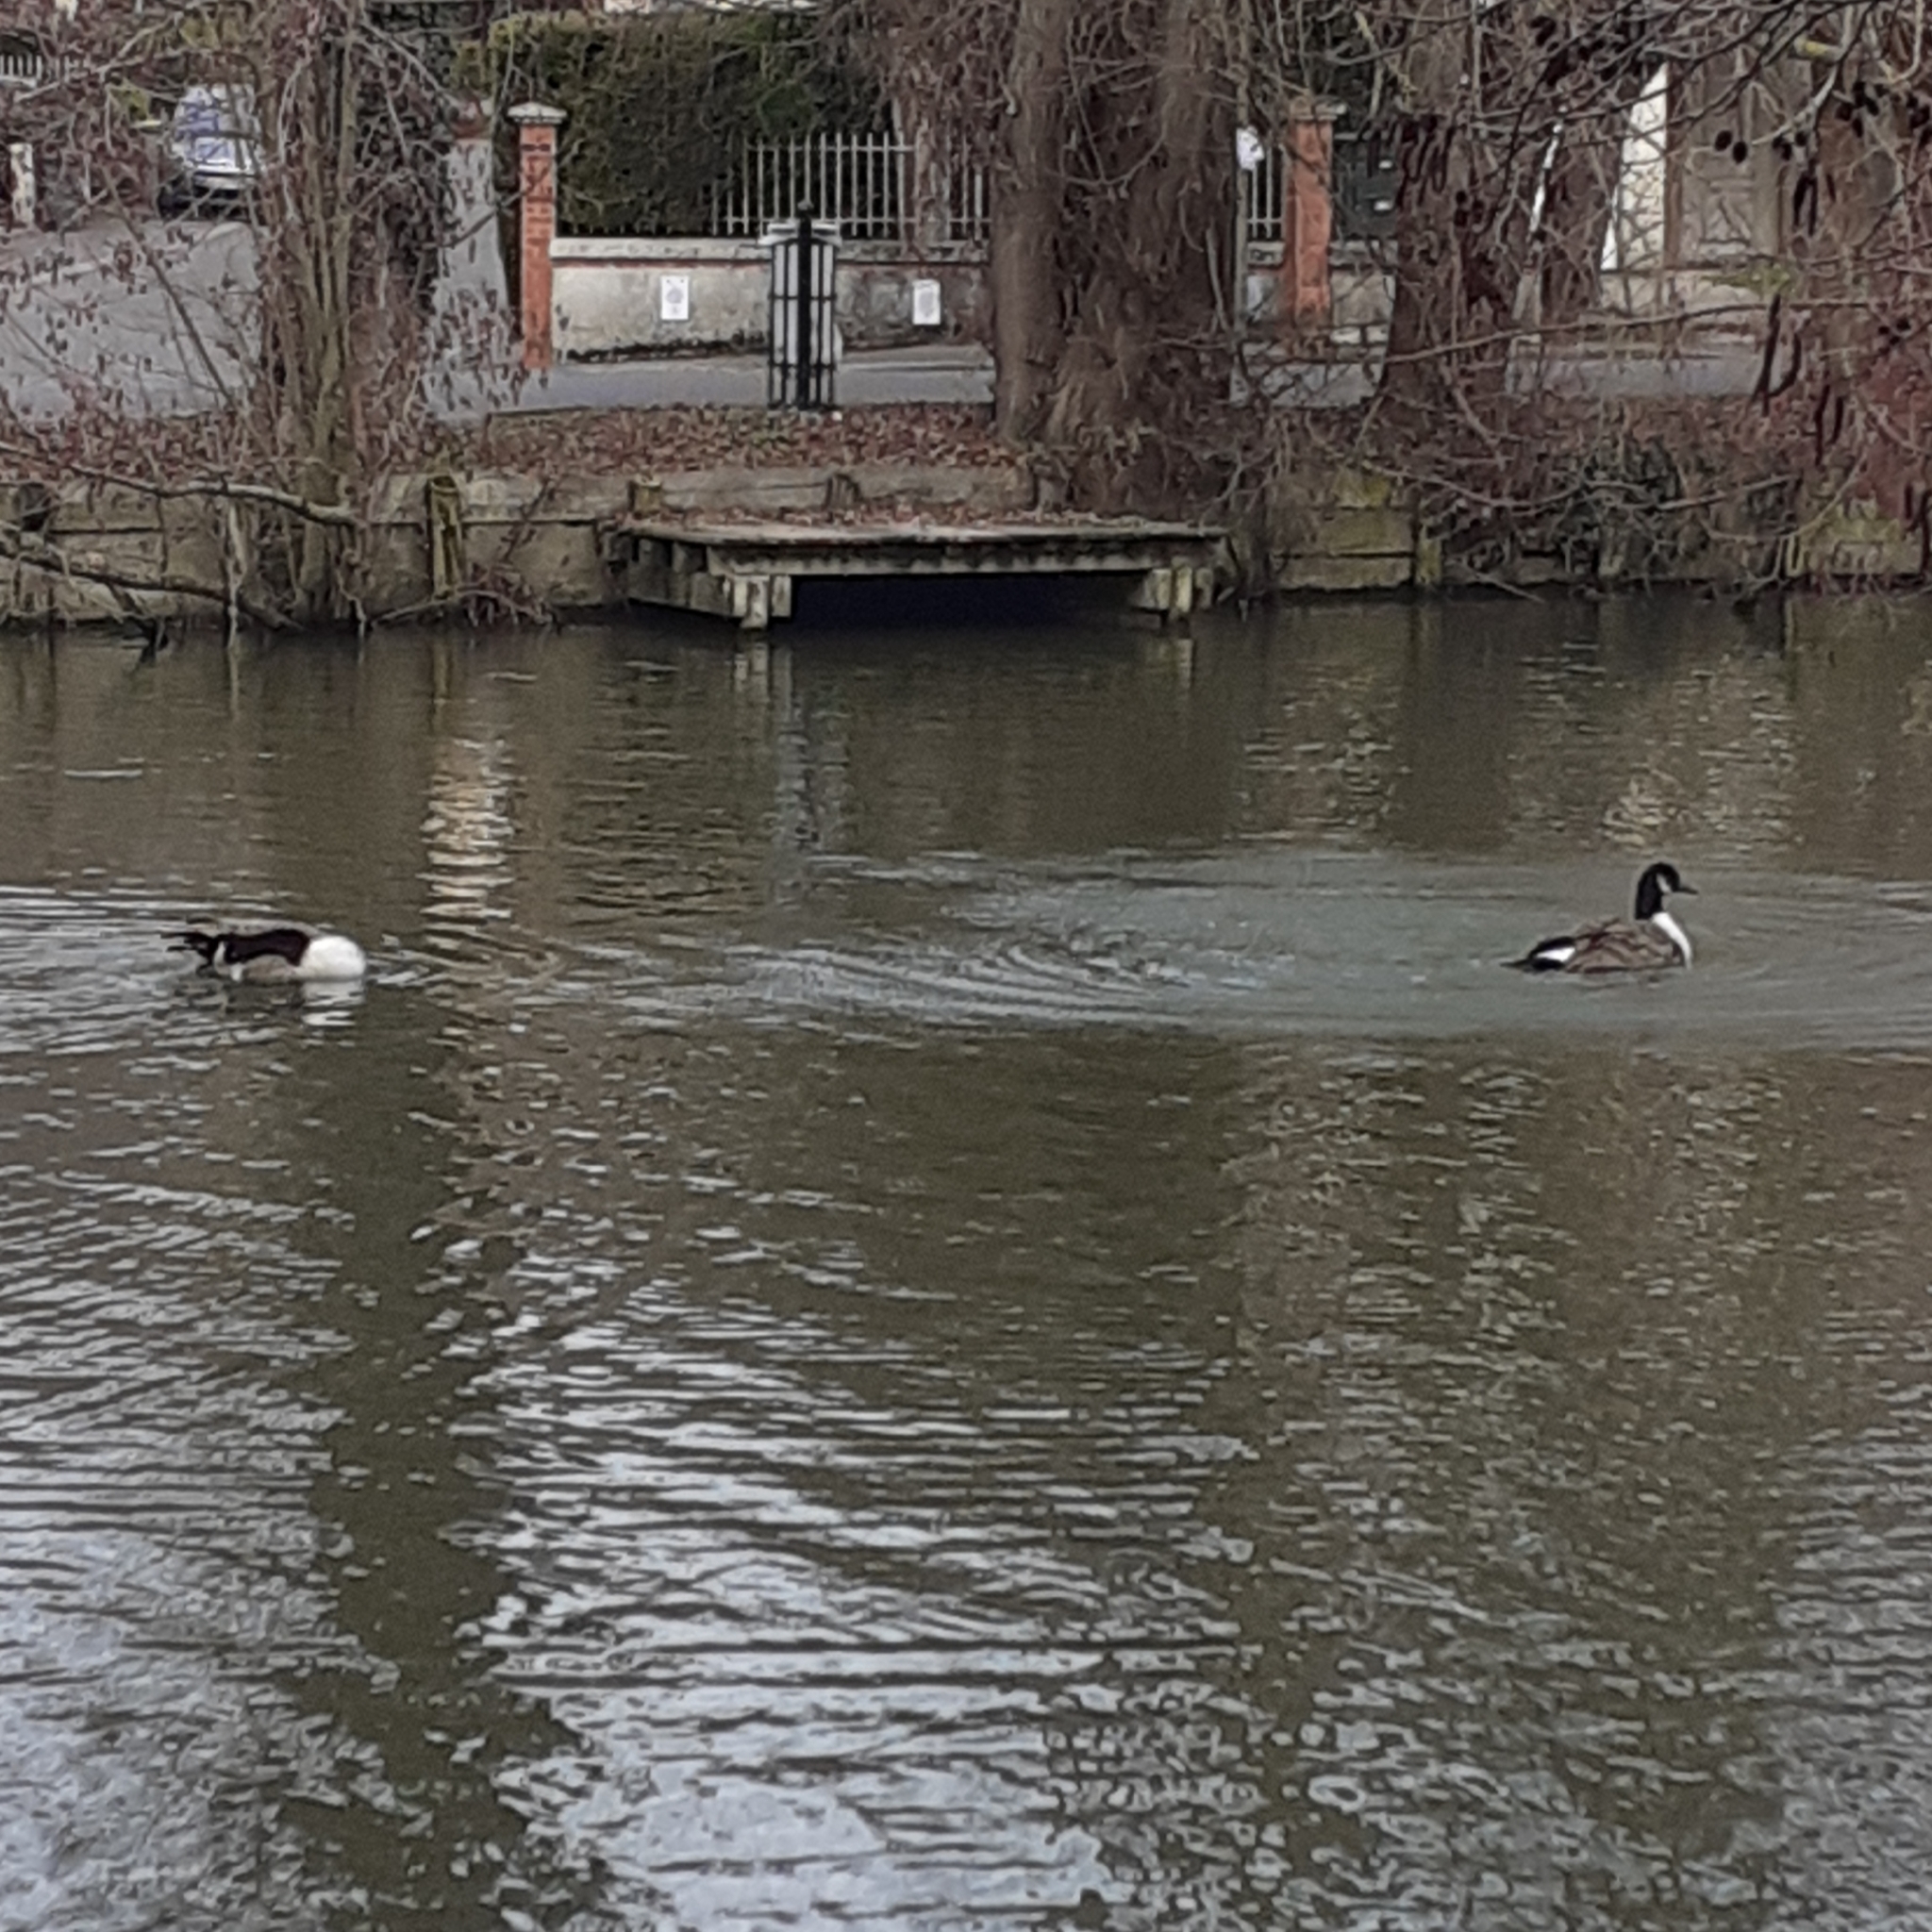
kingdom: Animalia
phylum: Chordata
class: Aves
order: Anseriformes
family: Anatidae
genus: Branta
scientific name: Branta canadensis
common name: Canada goose
